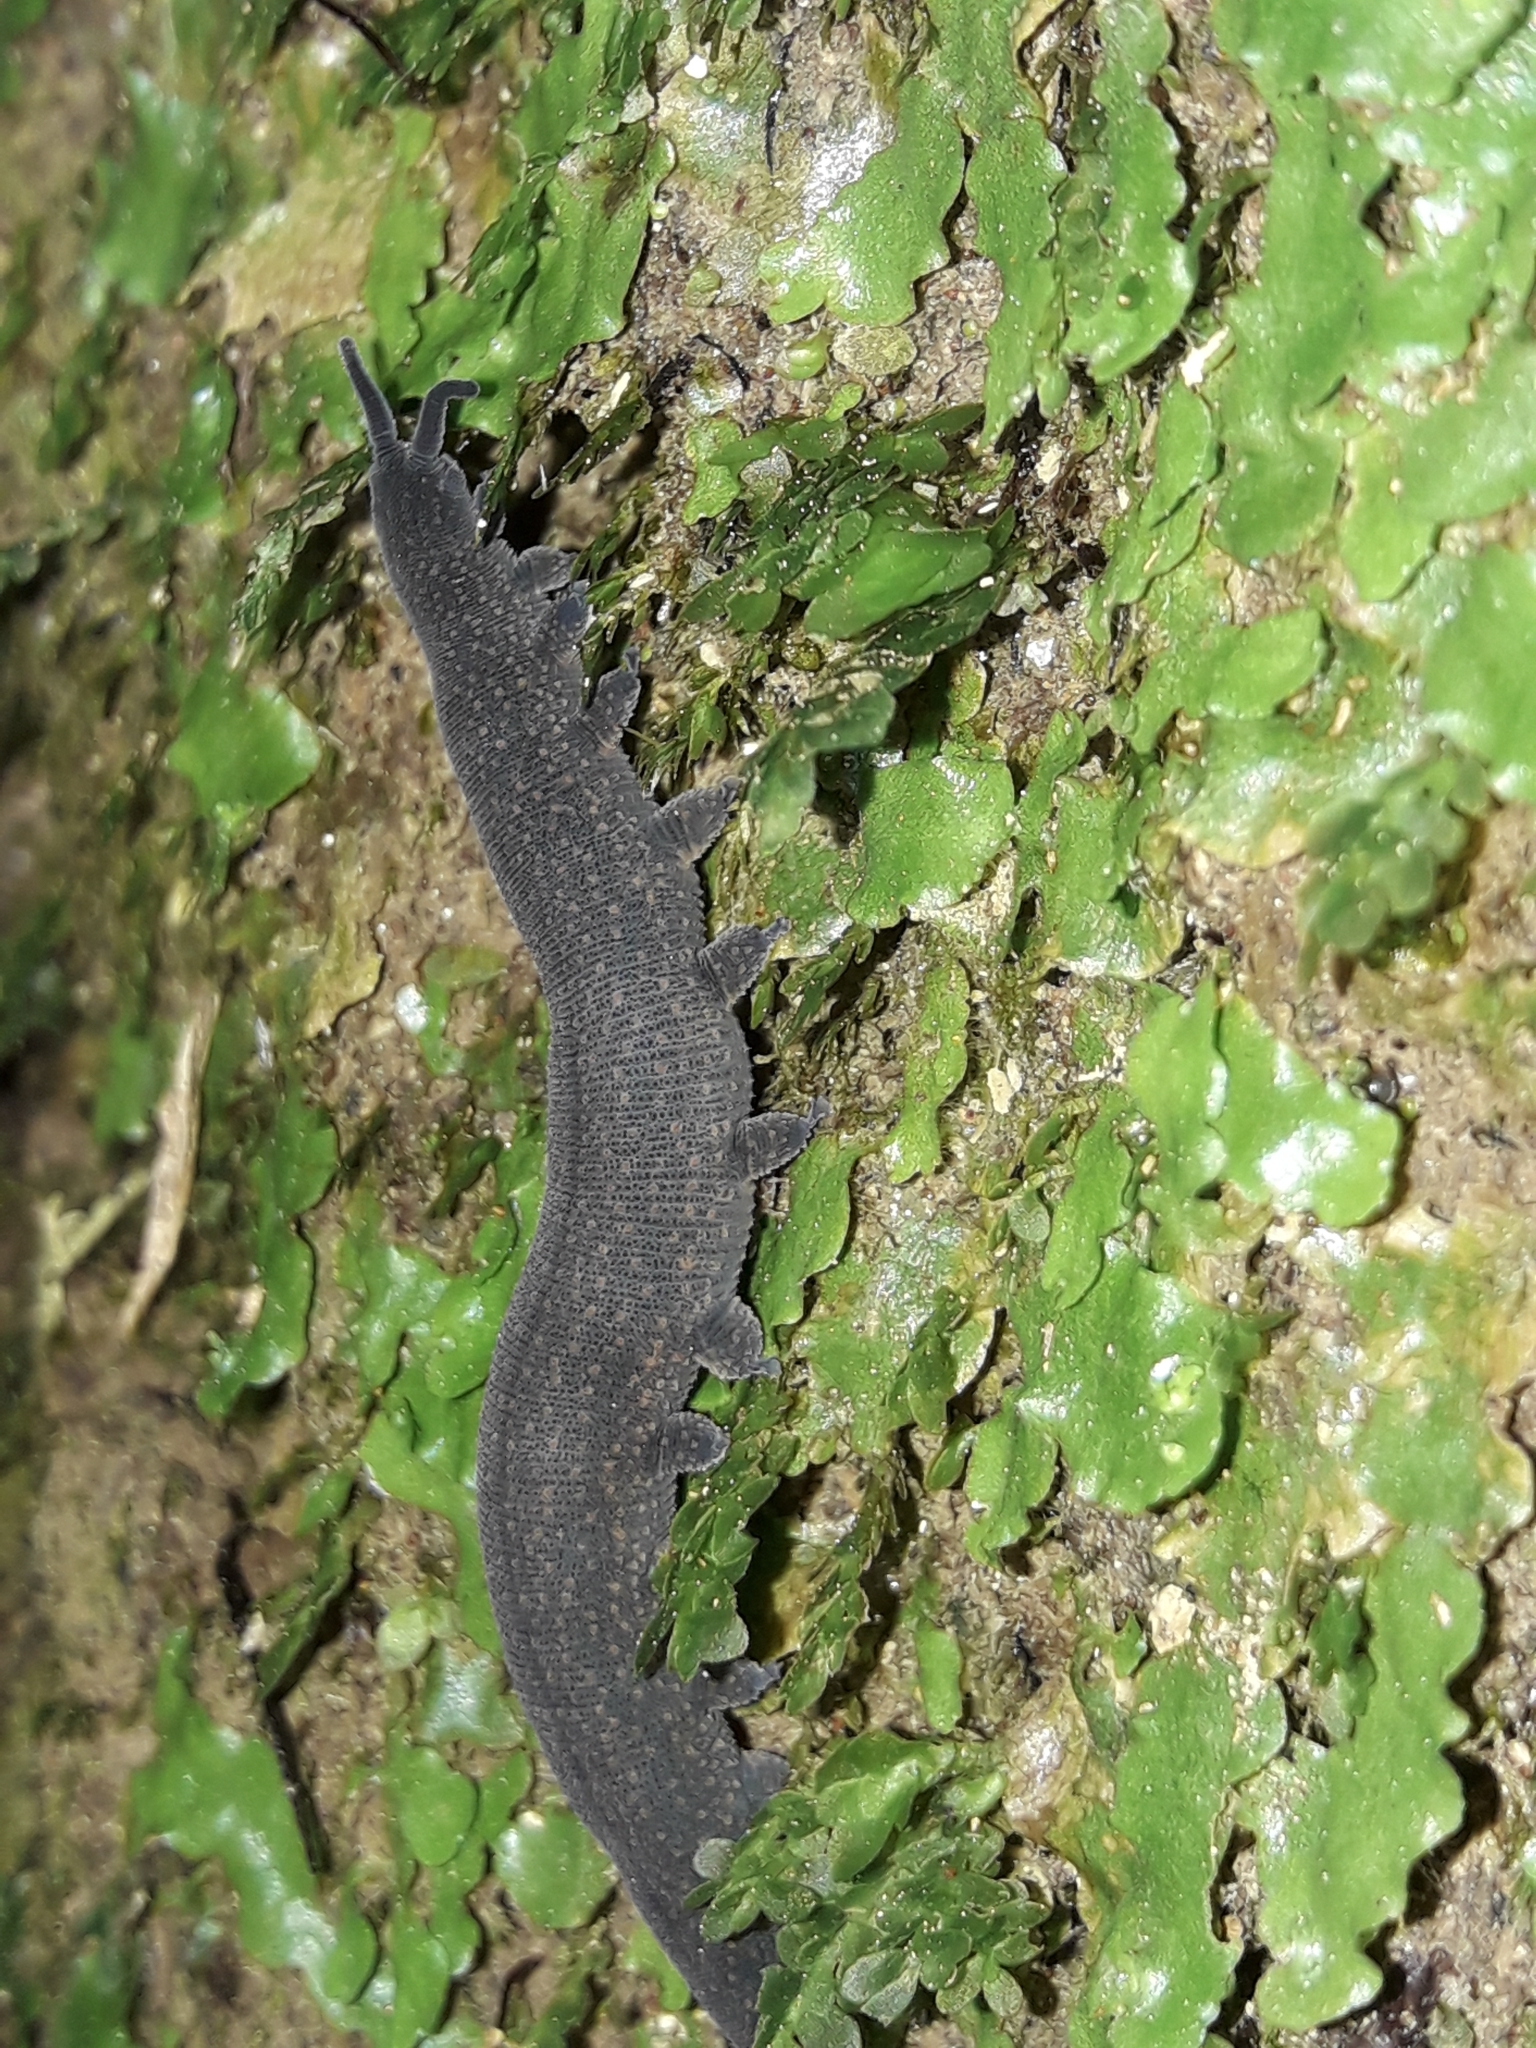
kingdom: Animalia
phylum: Onychophora
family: Peripatopsidae
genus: Peripatoides
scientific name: Peripatoides novaezealandiae
